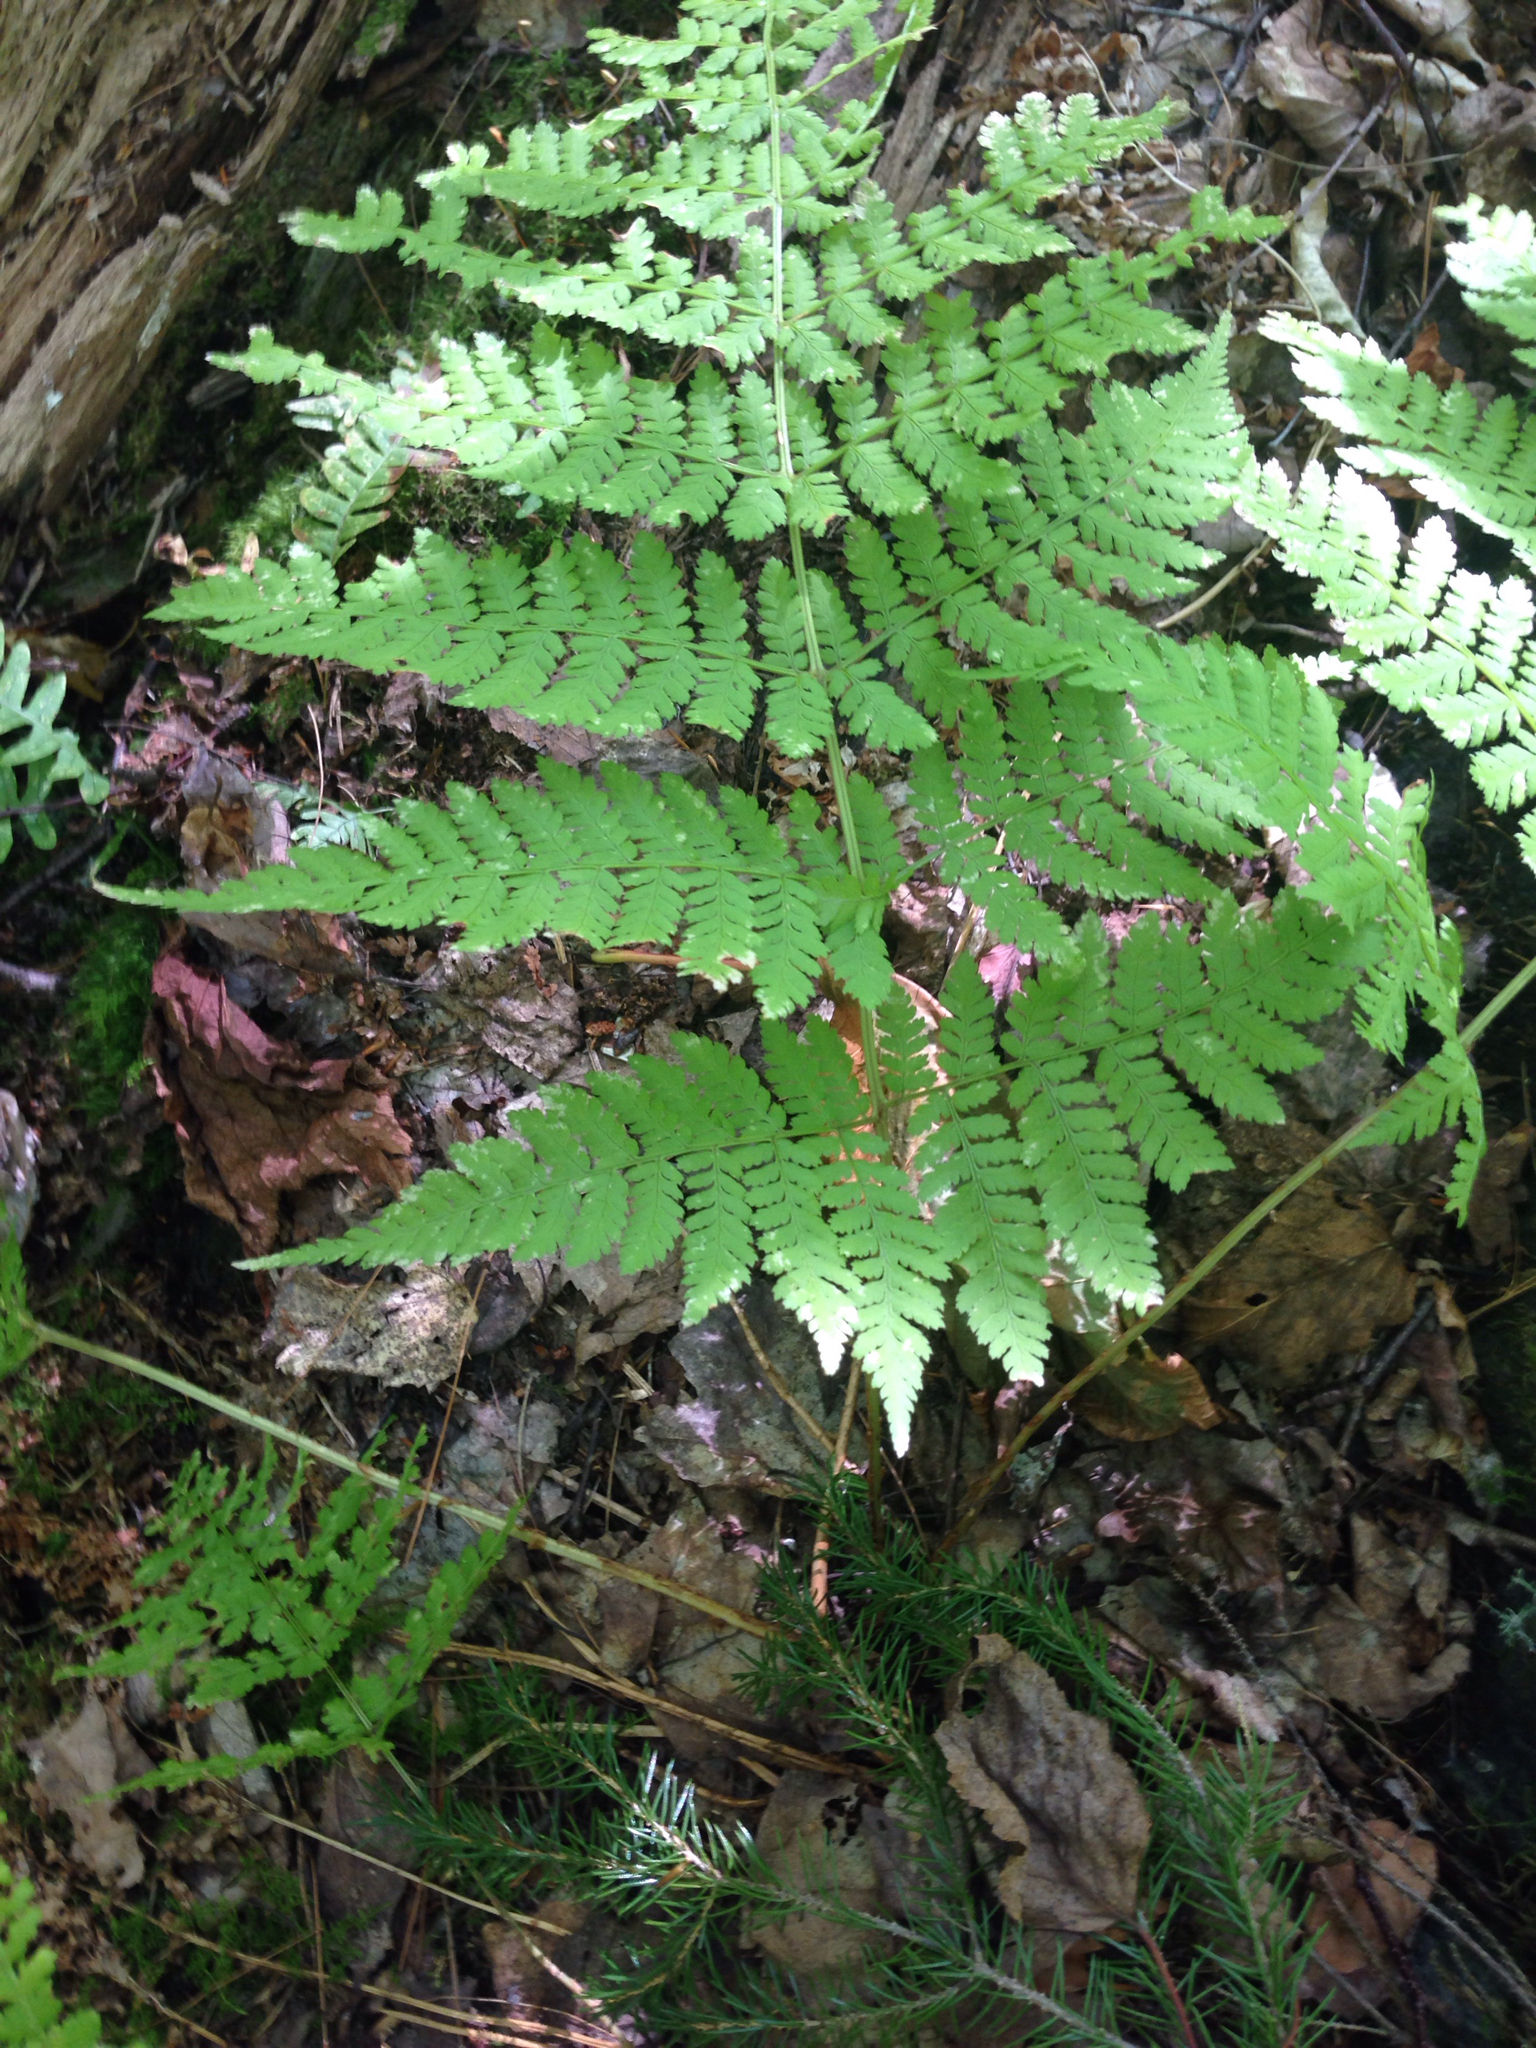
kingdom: Plantae
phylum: Tracheophyta
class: Polypodiopsida
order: Polypodiales
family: Dryopteridaceae
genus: Dryopteris
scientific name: Dryopteris campyloptera
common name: Mountain wood fern
